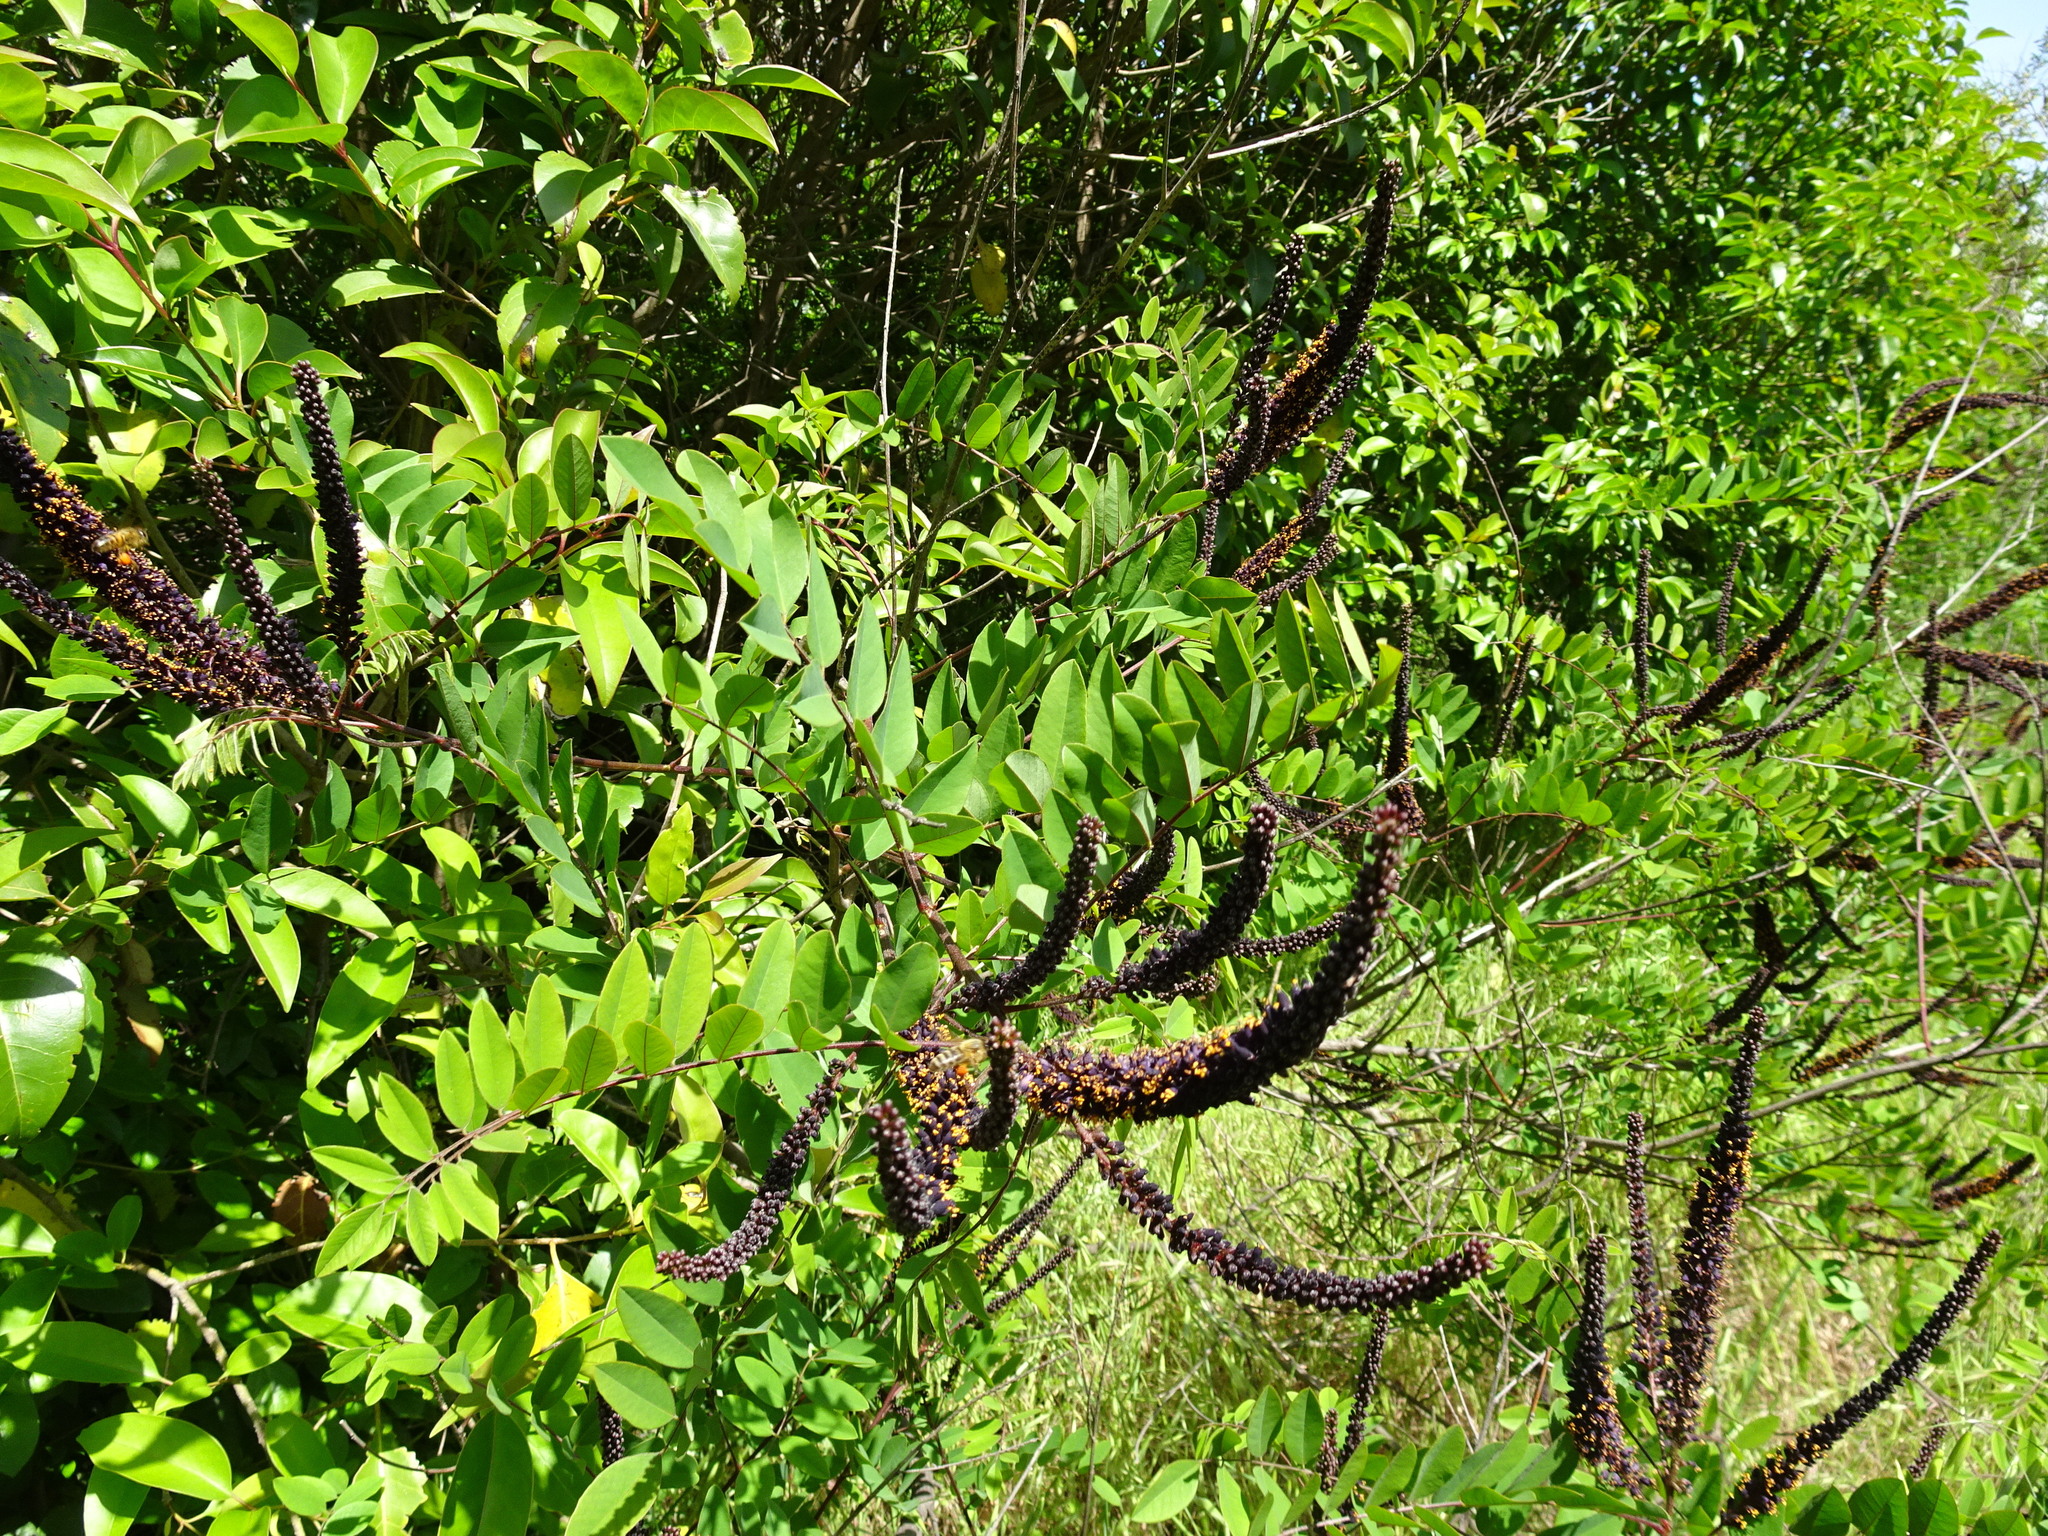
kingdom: Plantae
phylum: Tracheophyta
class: Magnoliopsida
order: Fabales
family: Fabaceae
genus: Amorpha
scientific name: Amorpha fruticosa
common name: False indigo
